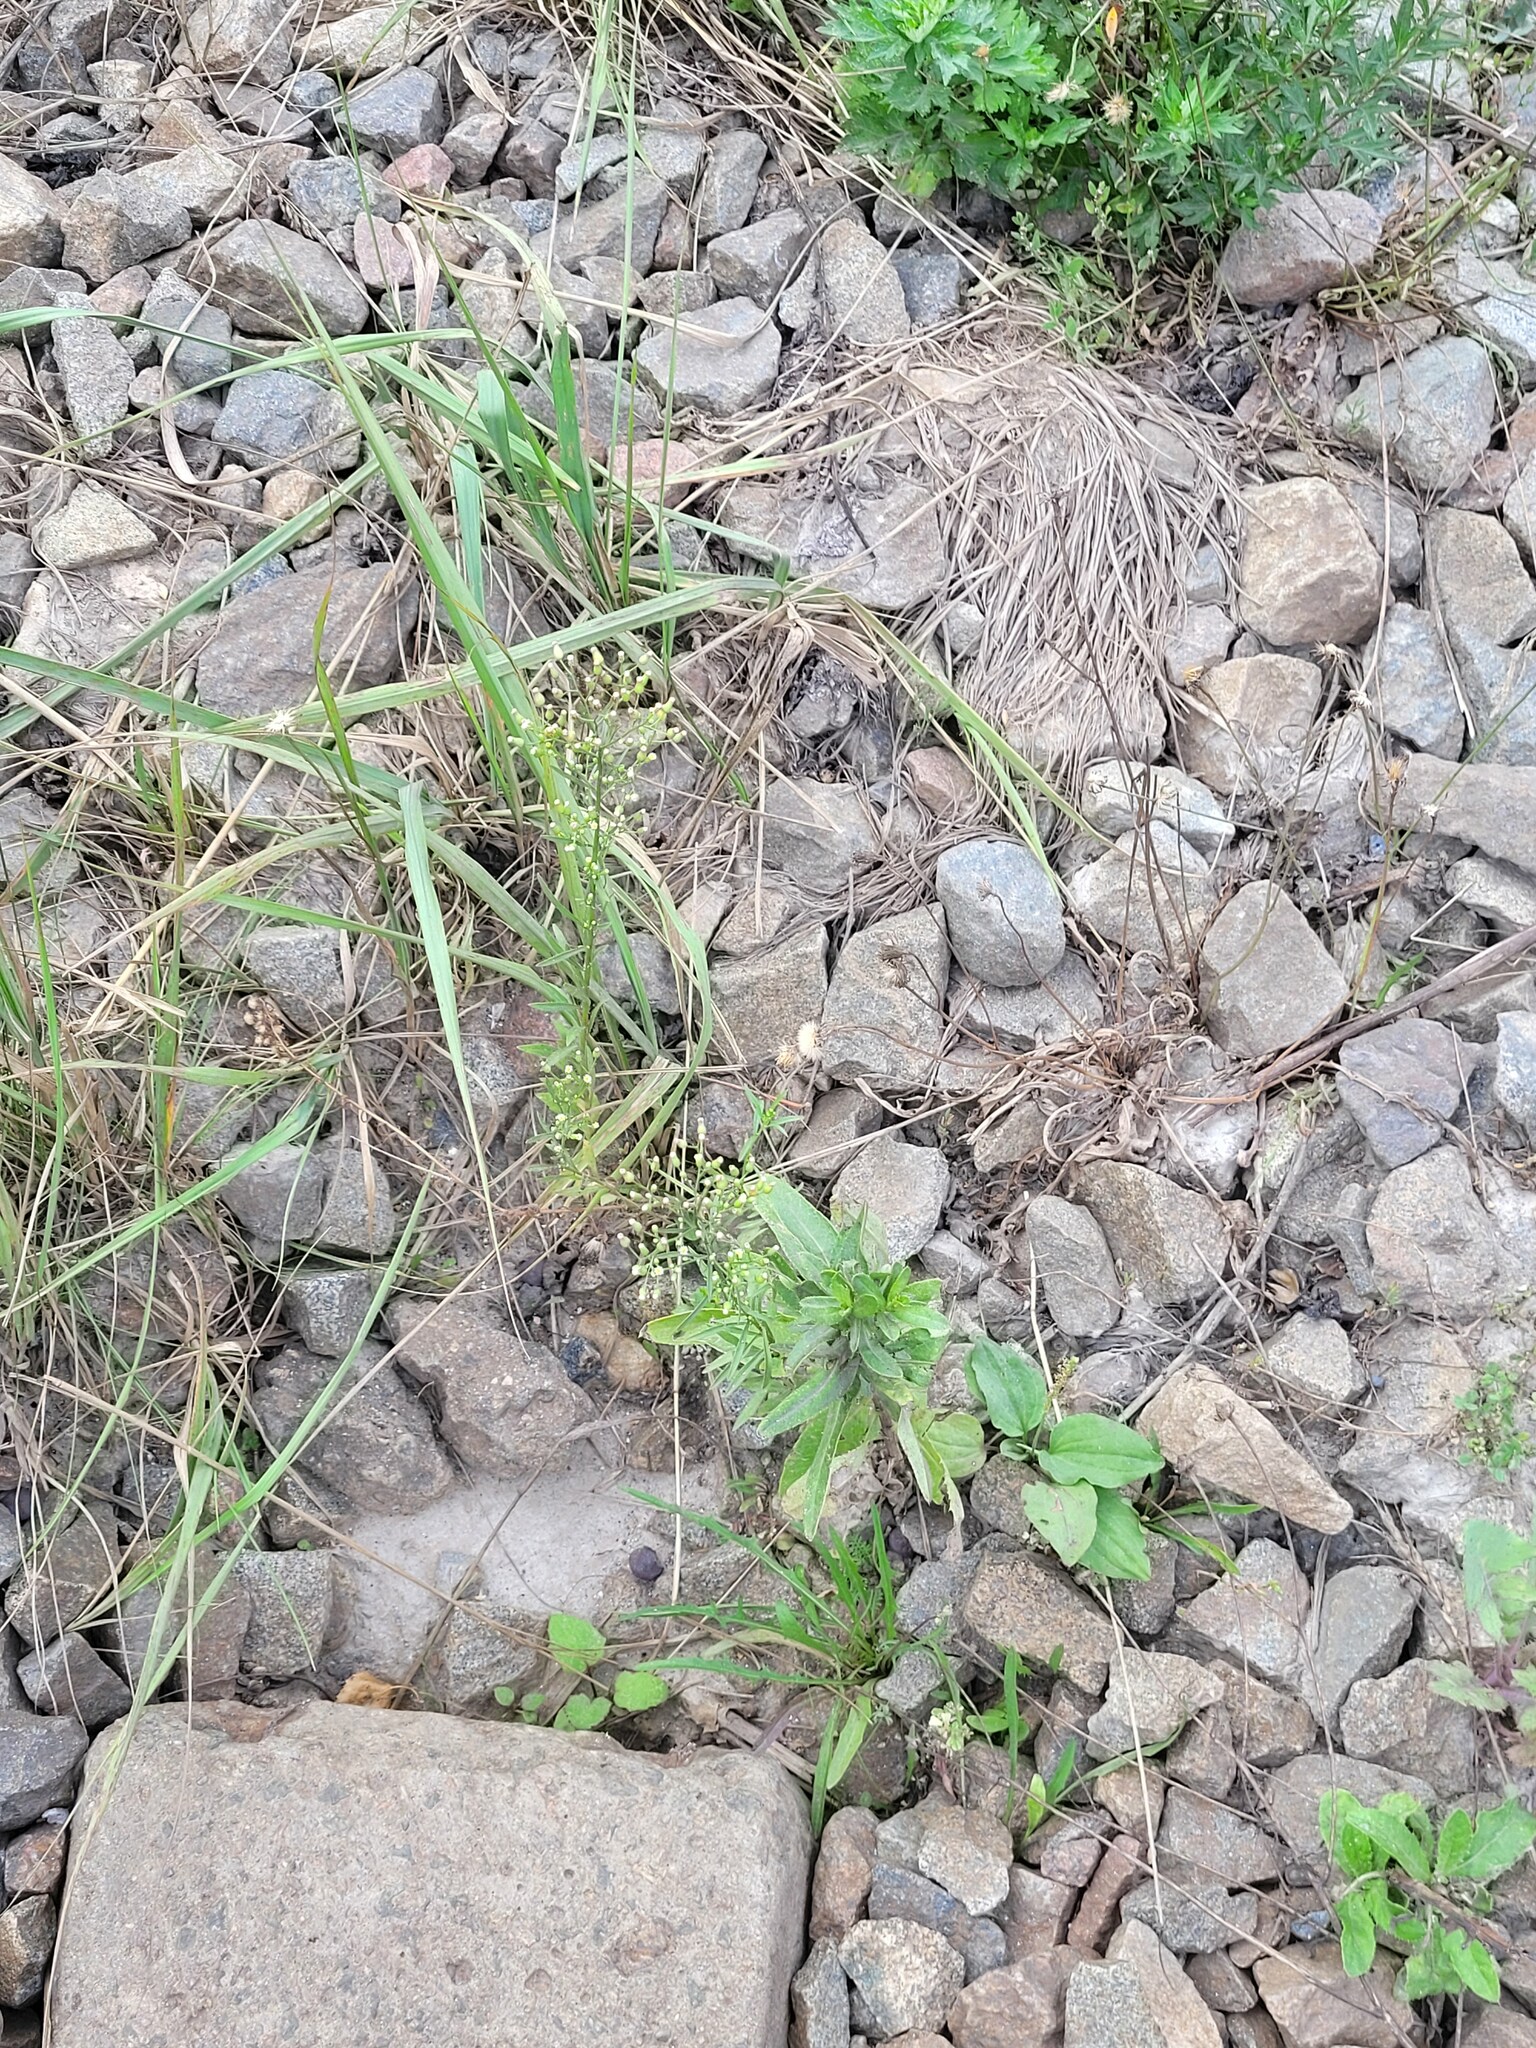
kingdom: Plantae
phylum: Tracheophyta
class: Magnoliopsida
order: Asterales
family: Asteraceae
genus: Erigeron
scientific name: Erigeron canadensis
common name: Canadian fleabane
